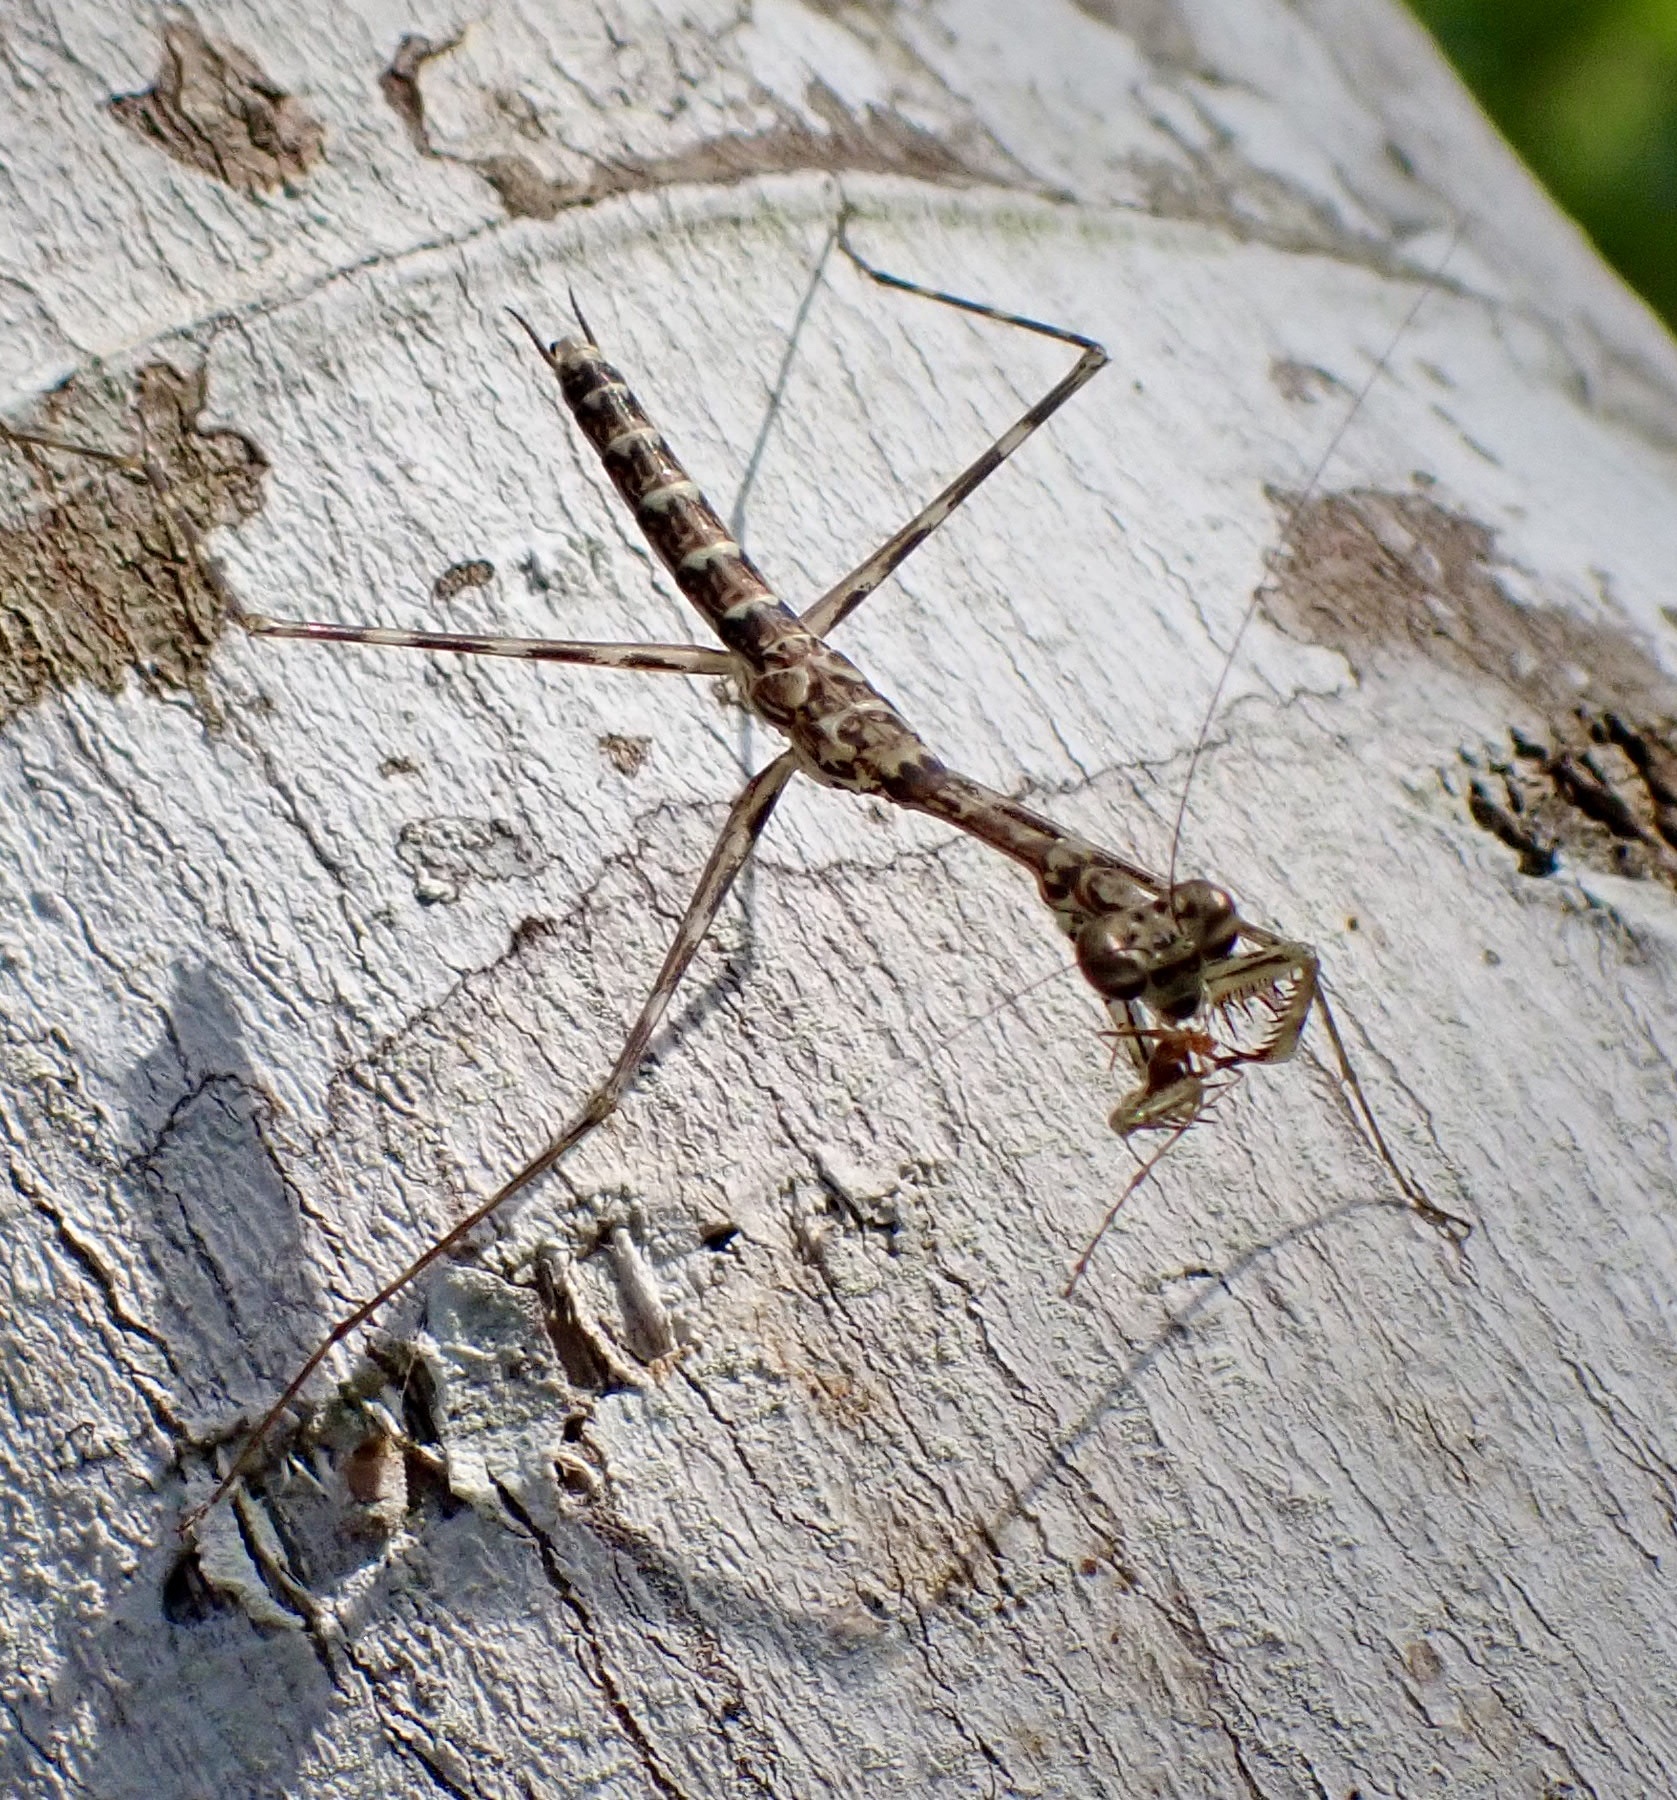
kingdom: Animalia
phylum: Arthropoda
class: Insecta
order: Mantodea
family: Nanomantidae
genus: Stenomantis
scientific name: Stenomantis novaeguineae
